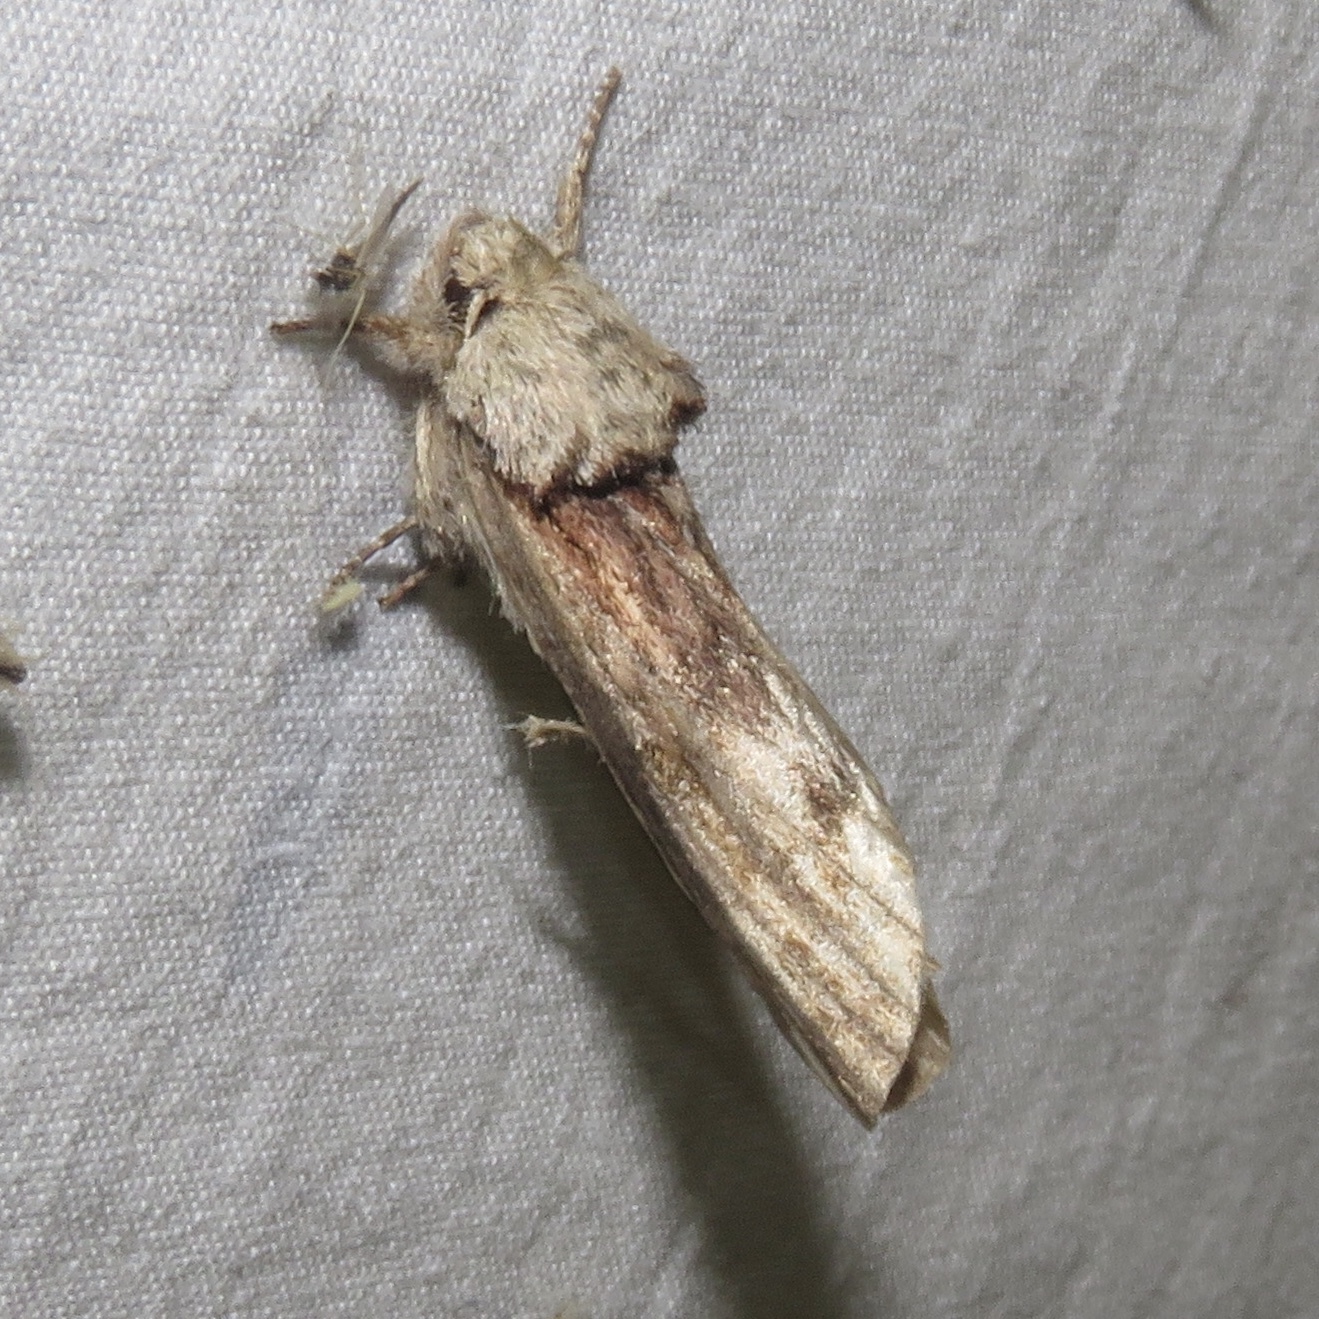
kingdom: Animalia
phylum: Arthropoda
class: Insecta
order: Lepidoptera
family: Notodontidae
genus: Schizura
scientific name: Schizura
